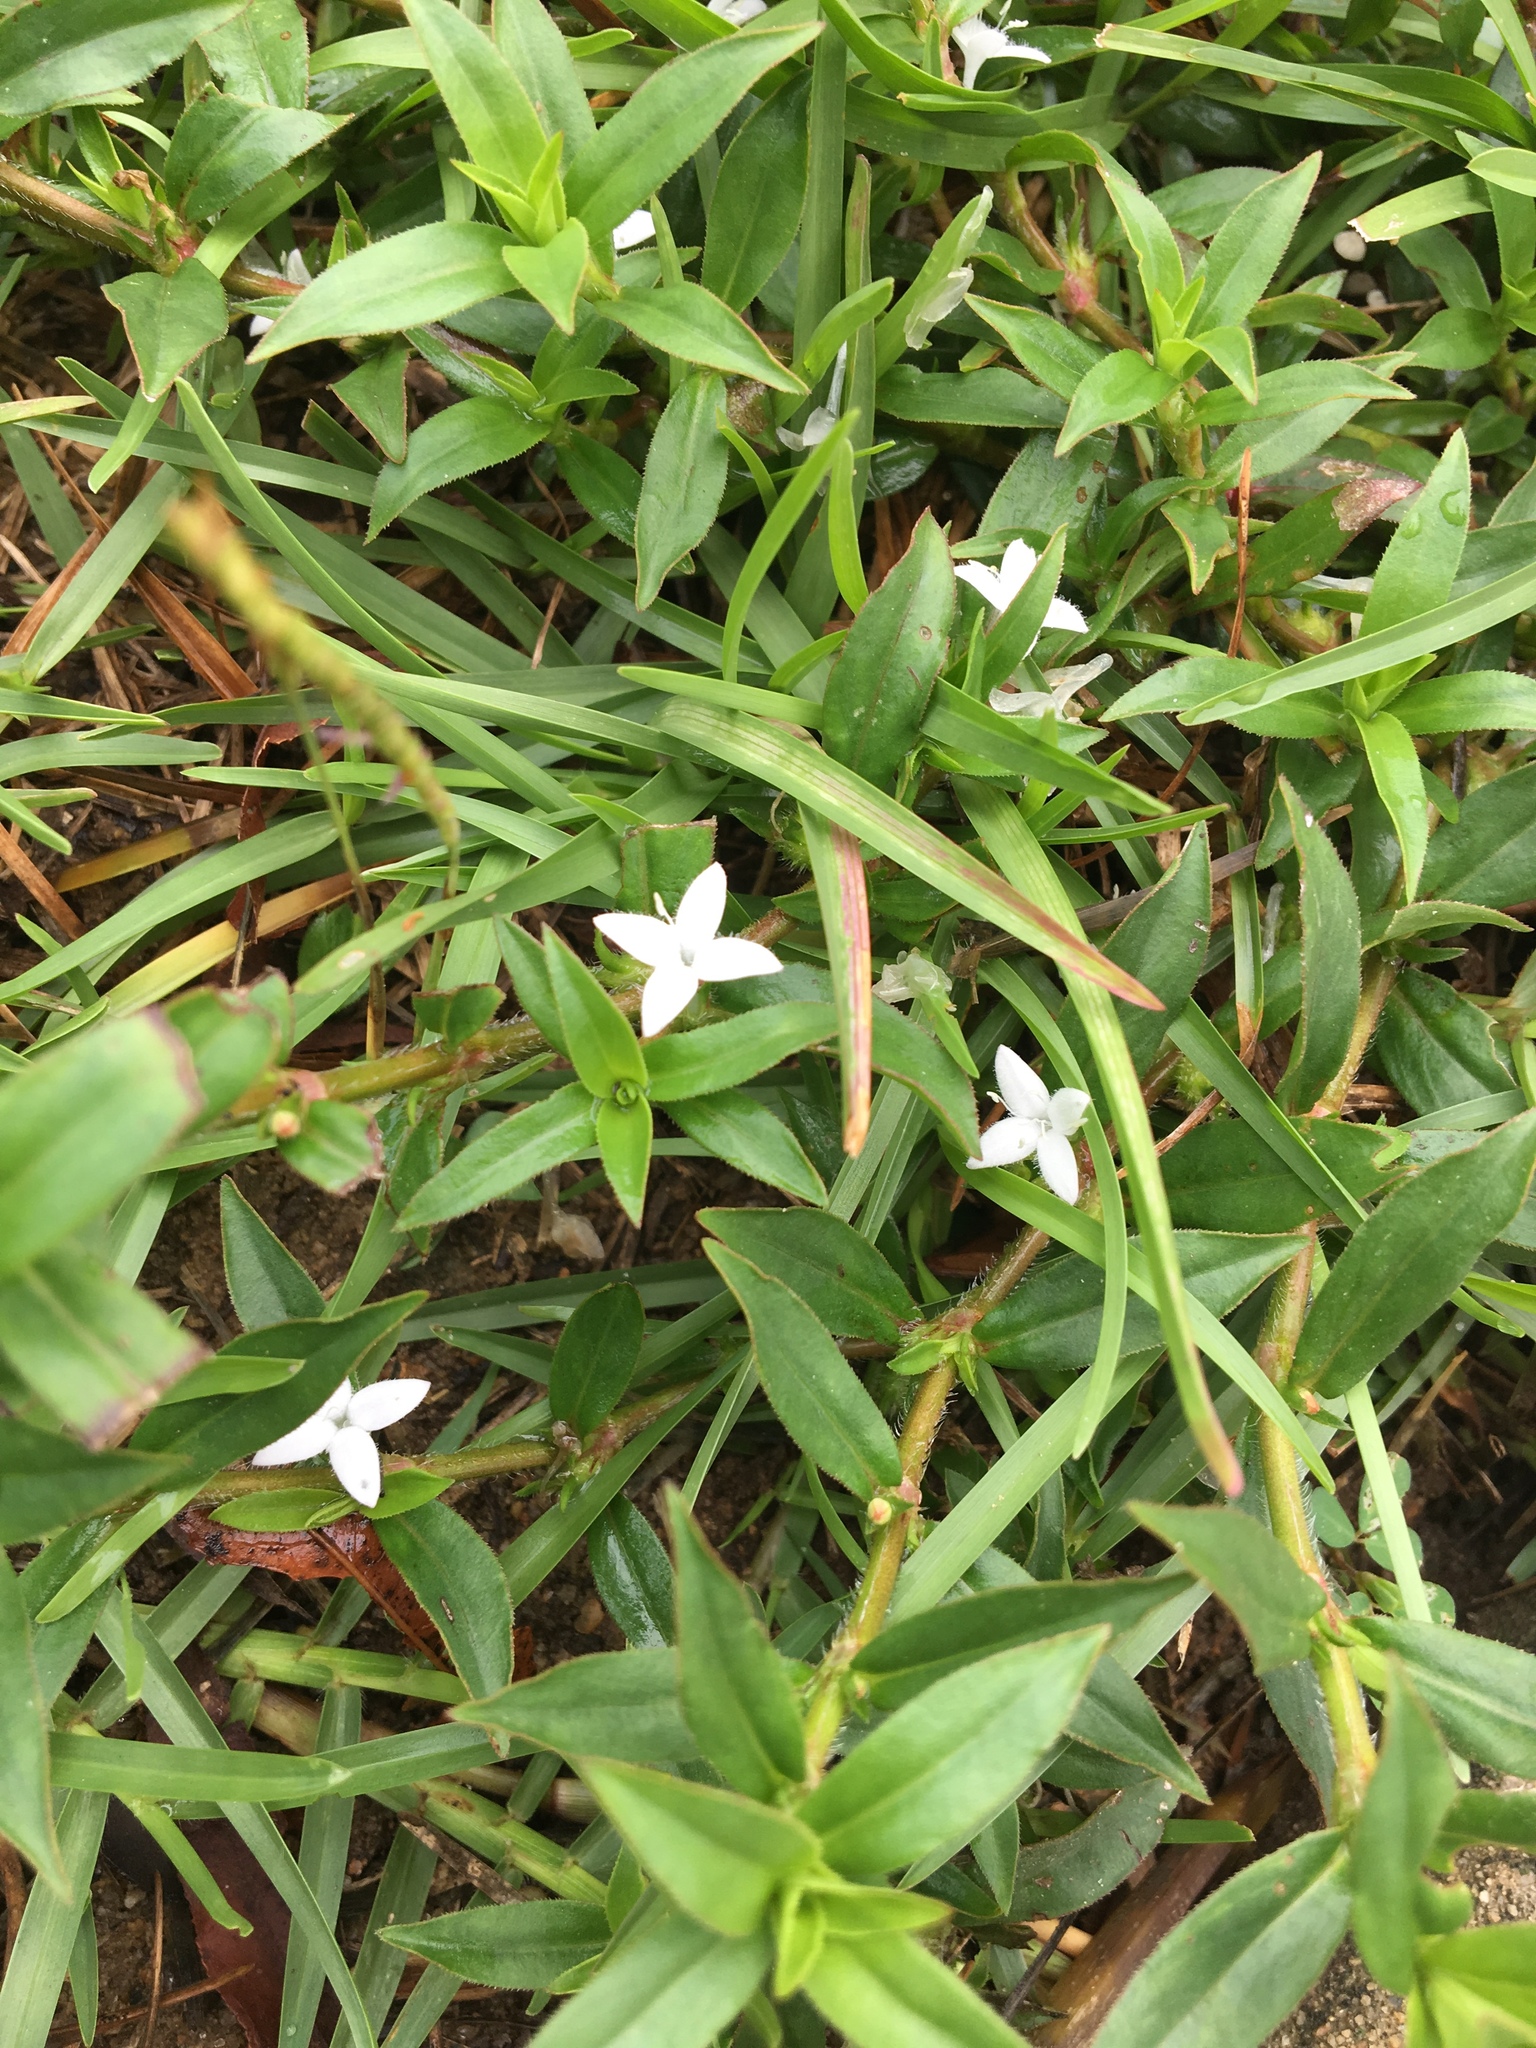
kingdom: Plantae
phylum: Tracheophyta
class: Magnoliopsida
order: Gentianales
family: Rubiaceae
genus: Diodia
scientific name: Diodia virginiana
